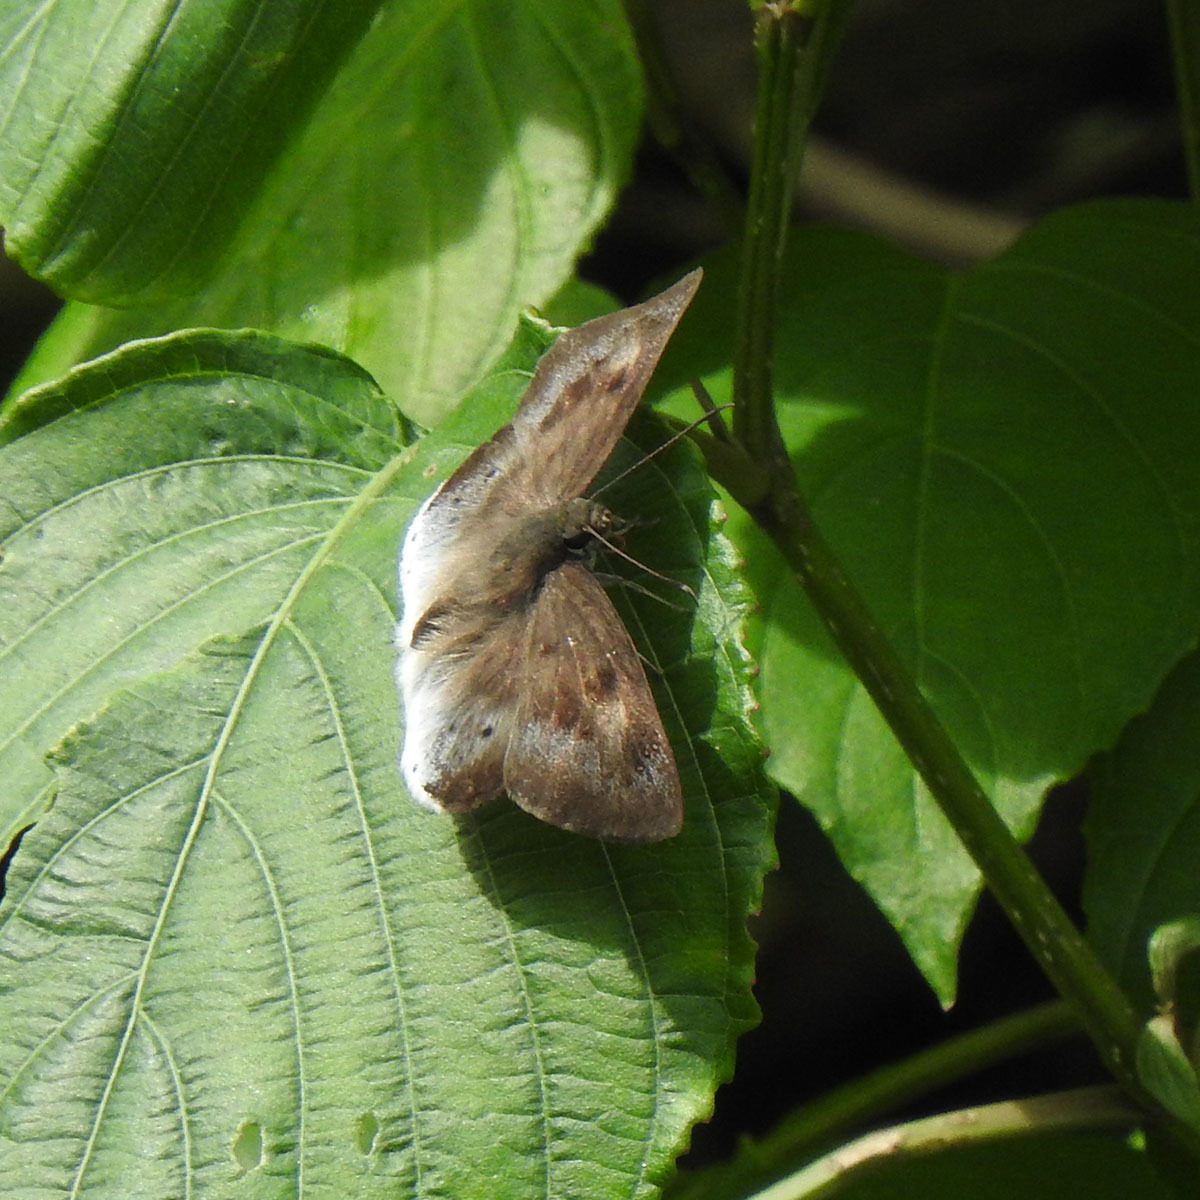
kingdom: Animalia
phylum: Arthropoda
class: Insecta
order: Lepidoptera
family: Hesperiidae
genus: Tagiades
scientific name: Tagiades japetus
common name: Pied flat
